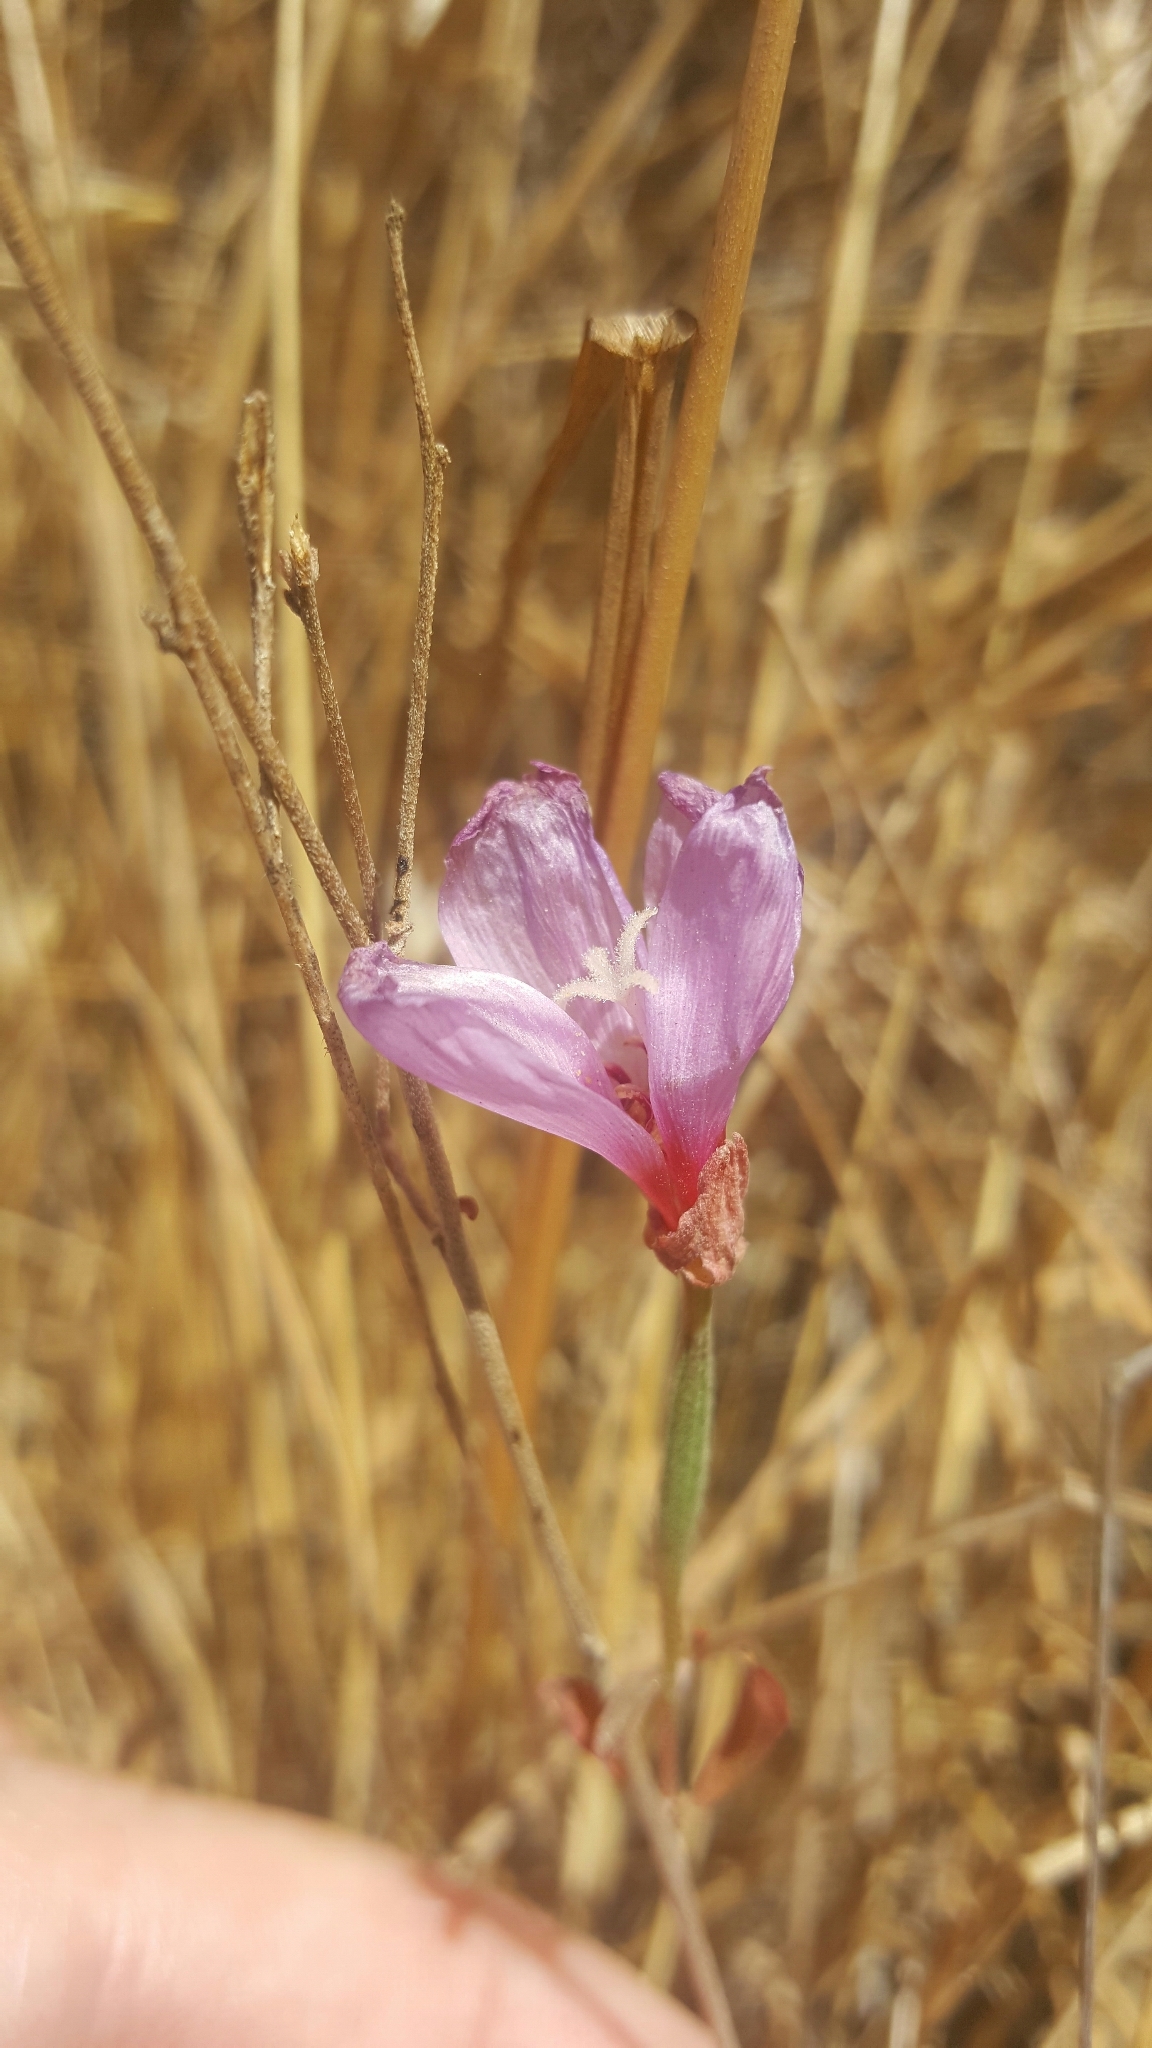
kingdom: Plantae
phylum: Tracheophyta
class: Magnoliopsida
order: Myrtales
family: Onagraceae
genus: Clarkia
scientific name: Clarkia rubicunda
